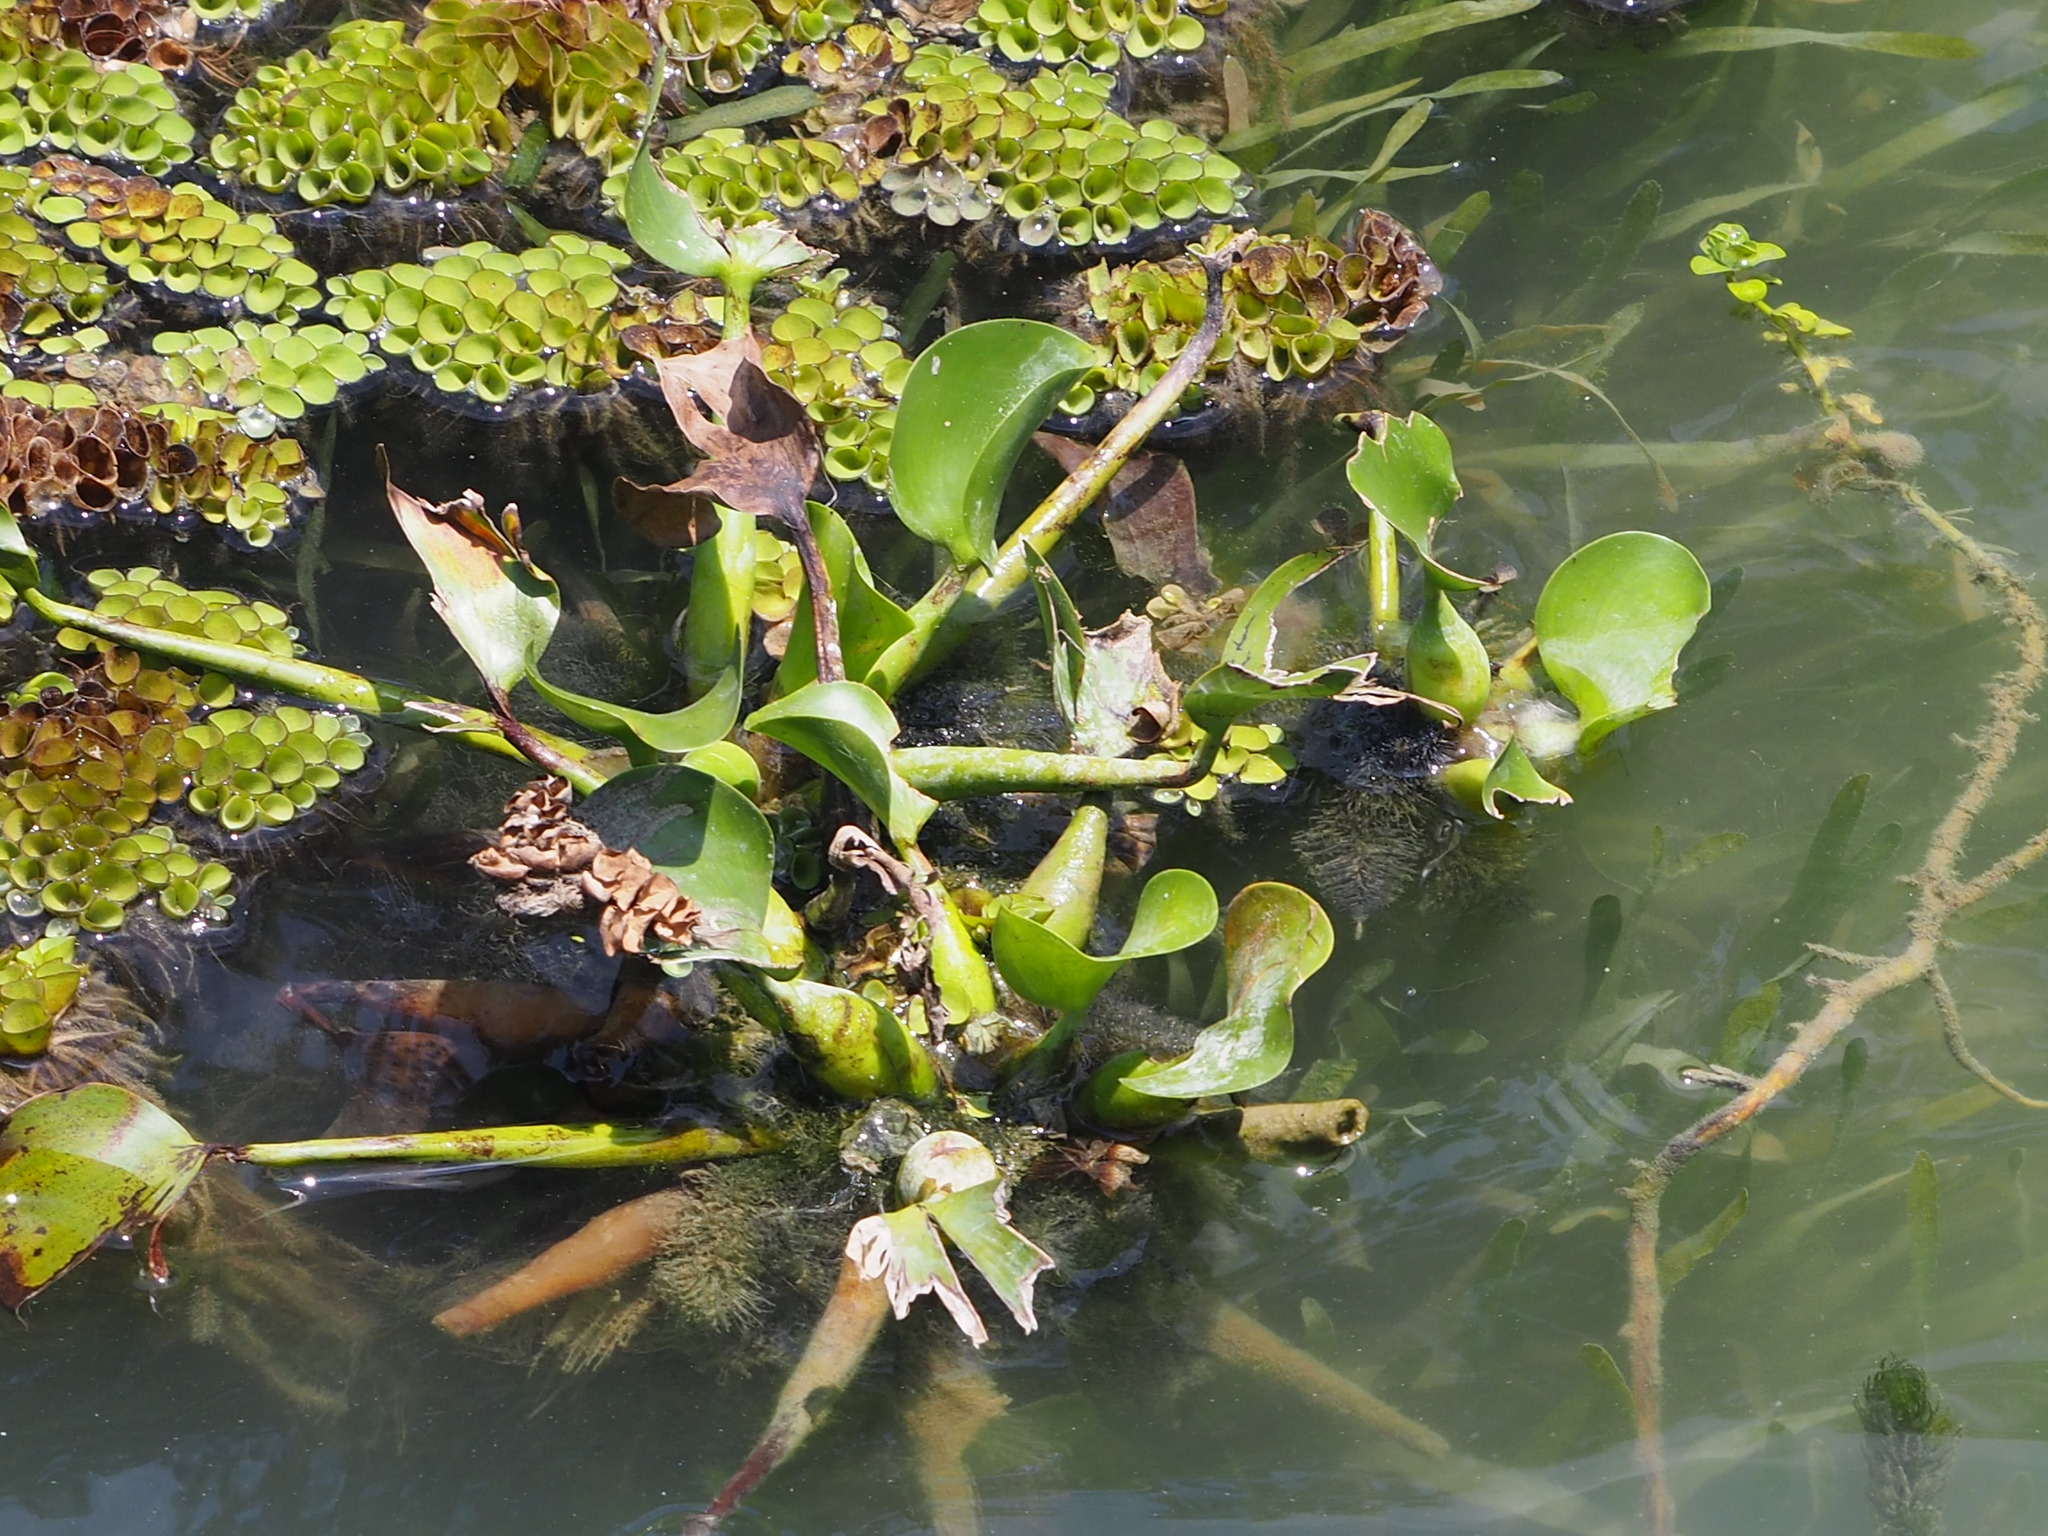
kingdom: Plantae
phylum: Tracheophyta
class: Liliopsida
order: Commelinales
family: Pontederiaceae
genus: Pontederia
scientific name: Pontederia crassipes
